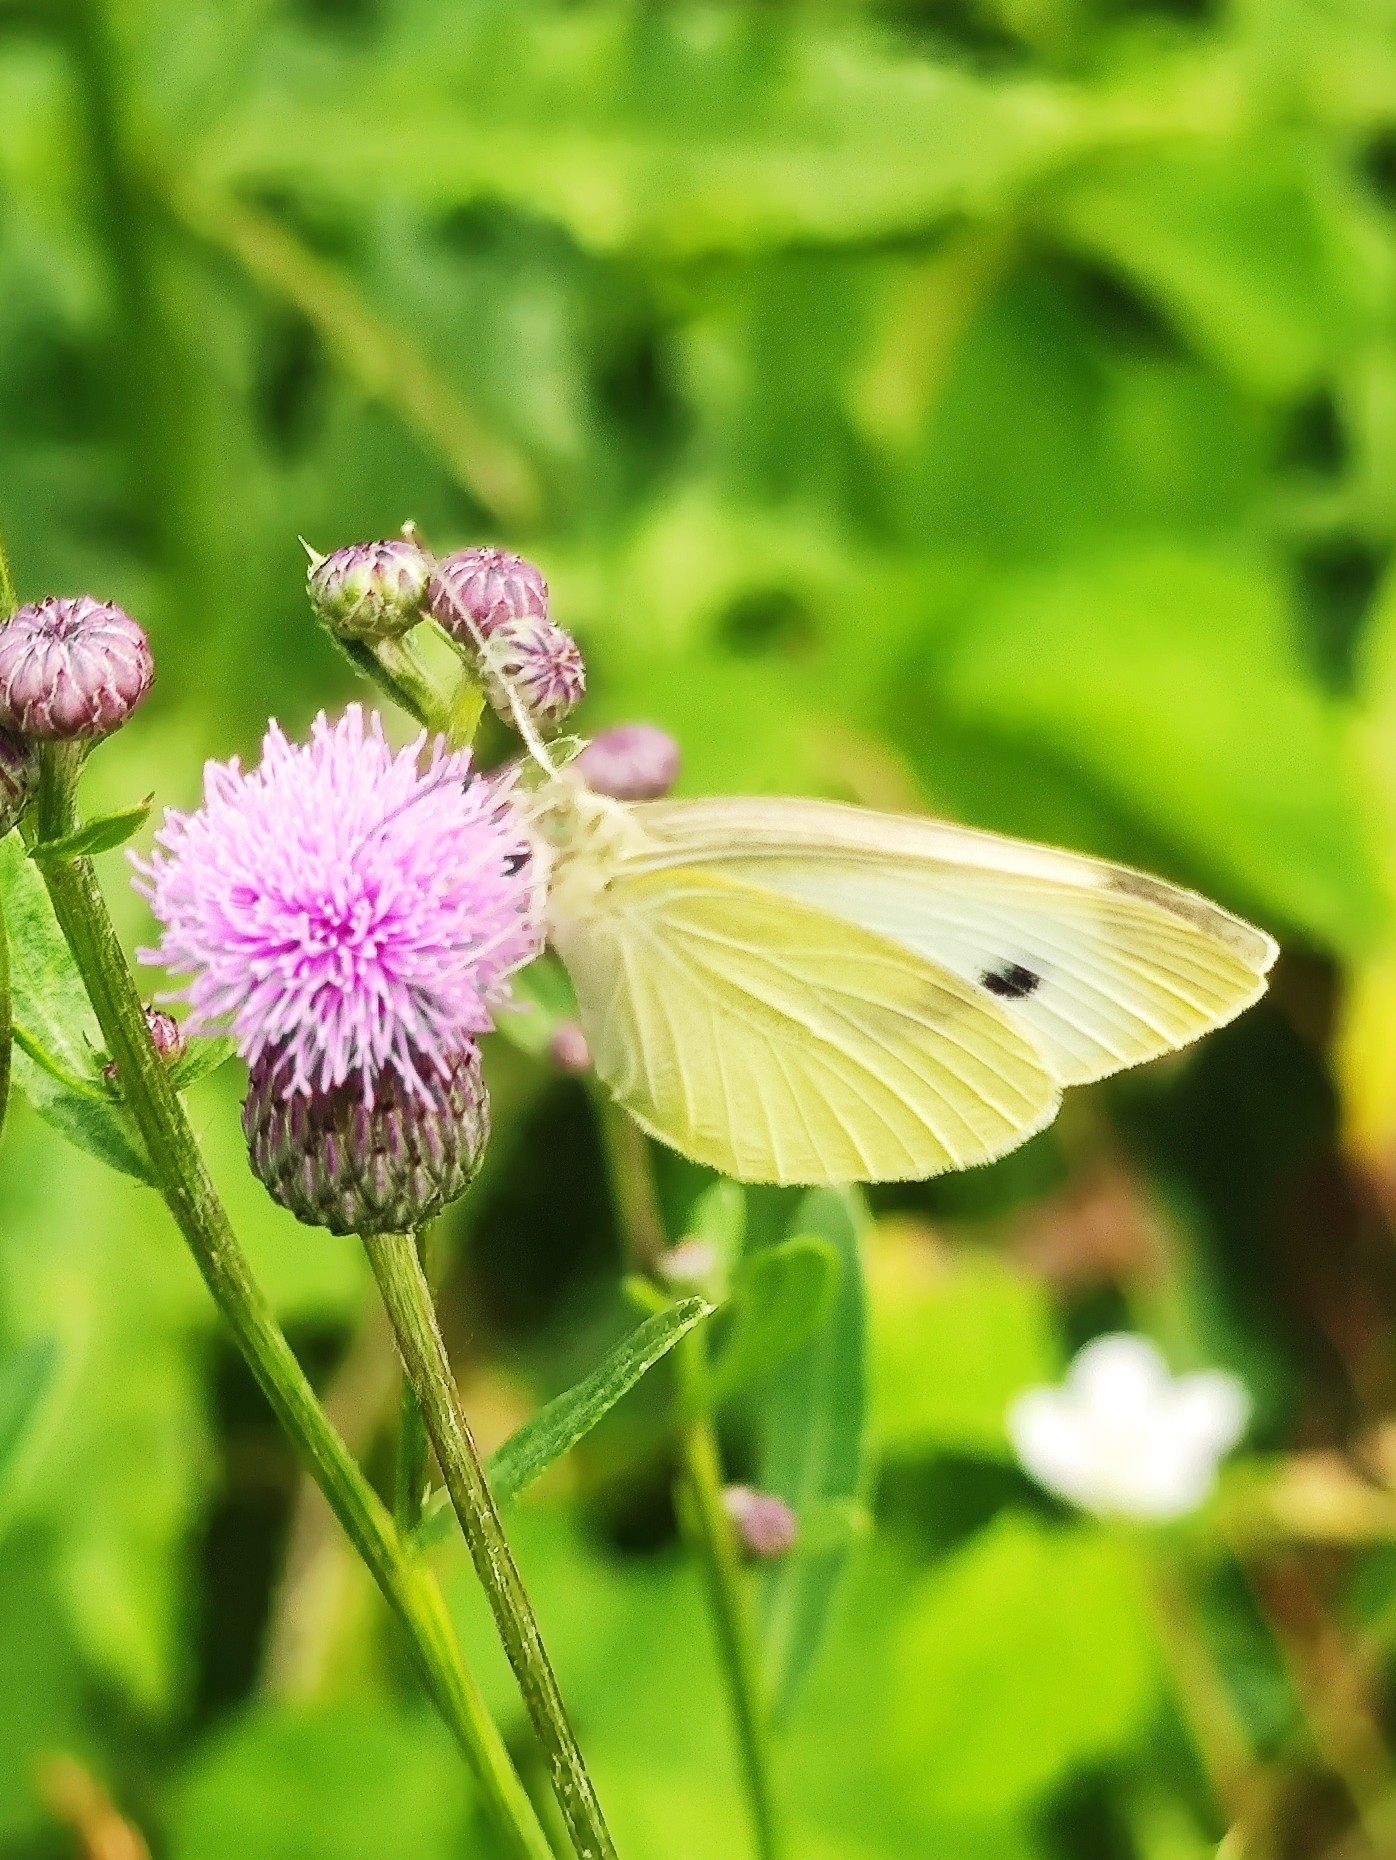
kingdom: Animalia
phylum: Arthropoda
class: Insecta
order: Lepidoptera
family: Pieridae
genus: Pieris
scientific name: Pieris rapae
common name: Small white
